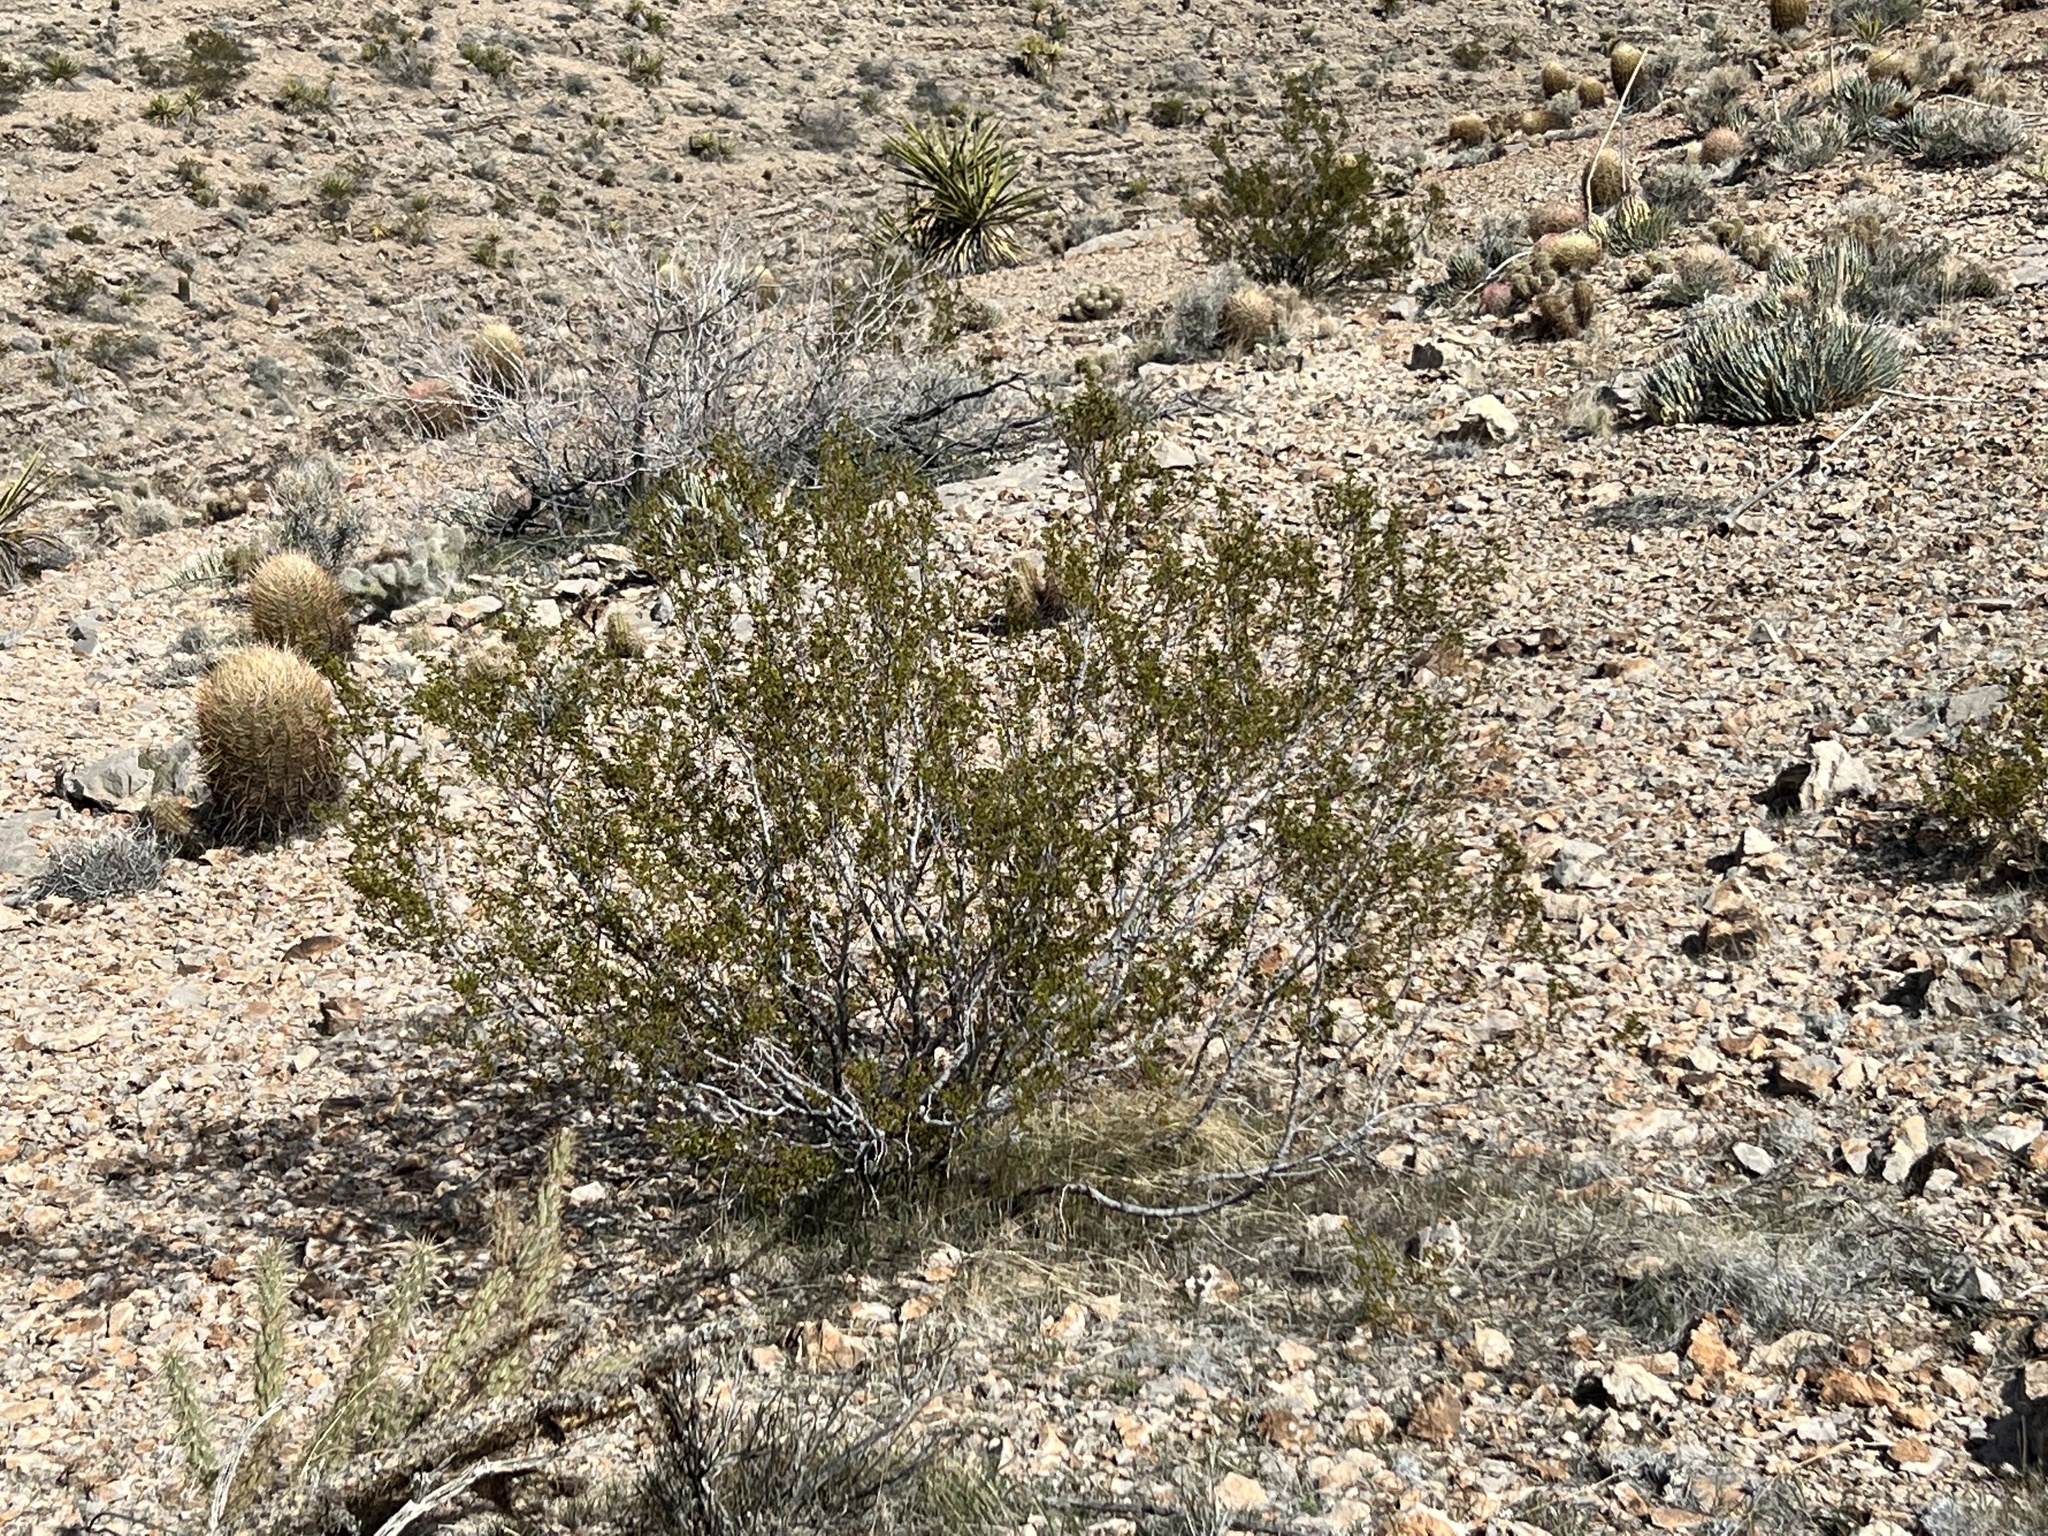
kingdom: Plantae
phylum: Tracheophyta
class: Magnoliopsida
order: Zygophyllales
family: Zygophyllaceae
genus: Larrea
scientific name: Larrea tridentata
